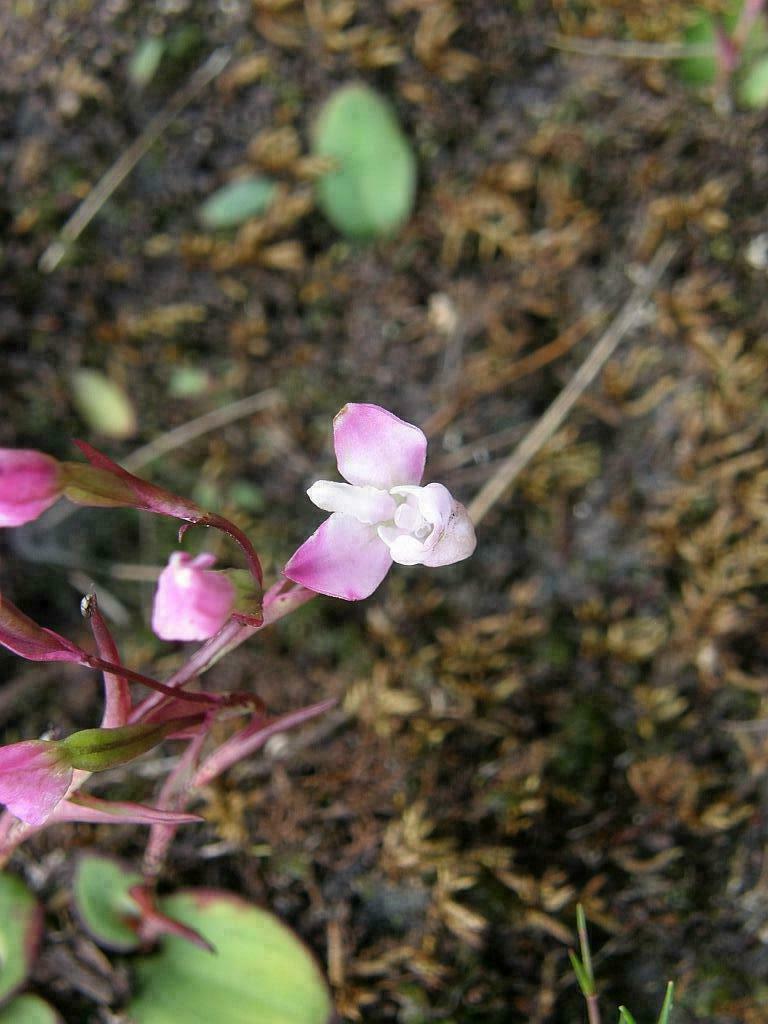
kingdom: Plantae
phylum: Tracheophyta
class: Liliopsida
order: Asparagales
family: Orchidaceae
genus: Disa
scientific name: Disa rosea
